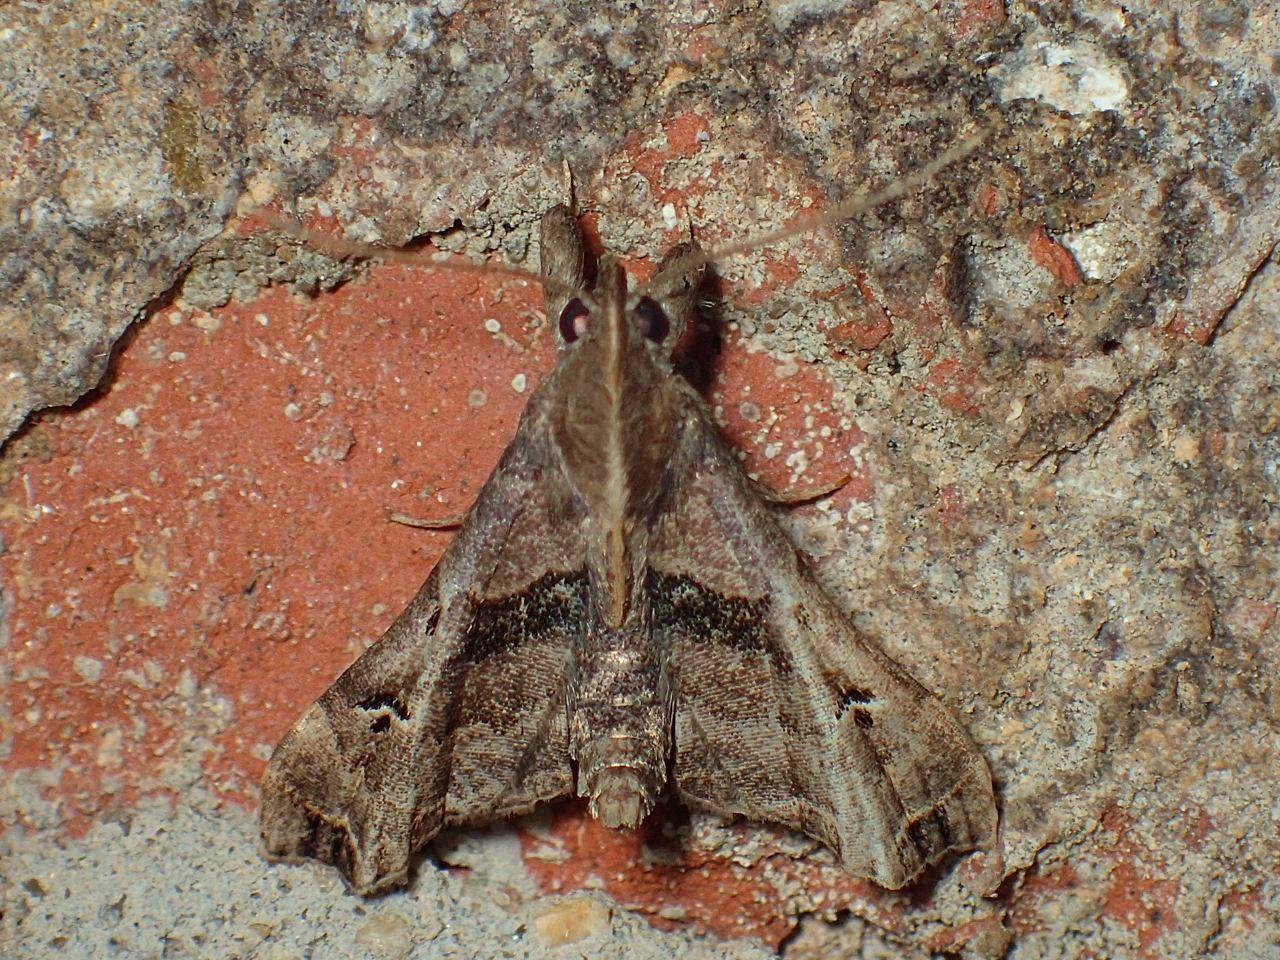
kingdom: Animalia
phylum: Arthropoda
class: Insecta
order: Lepidoptera
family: Erebidae
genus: Palthis
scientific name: Palthis asopialis
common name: Faint-spotted palthis moth
